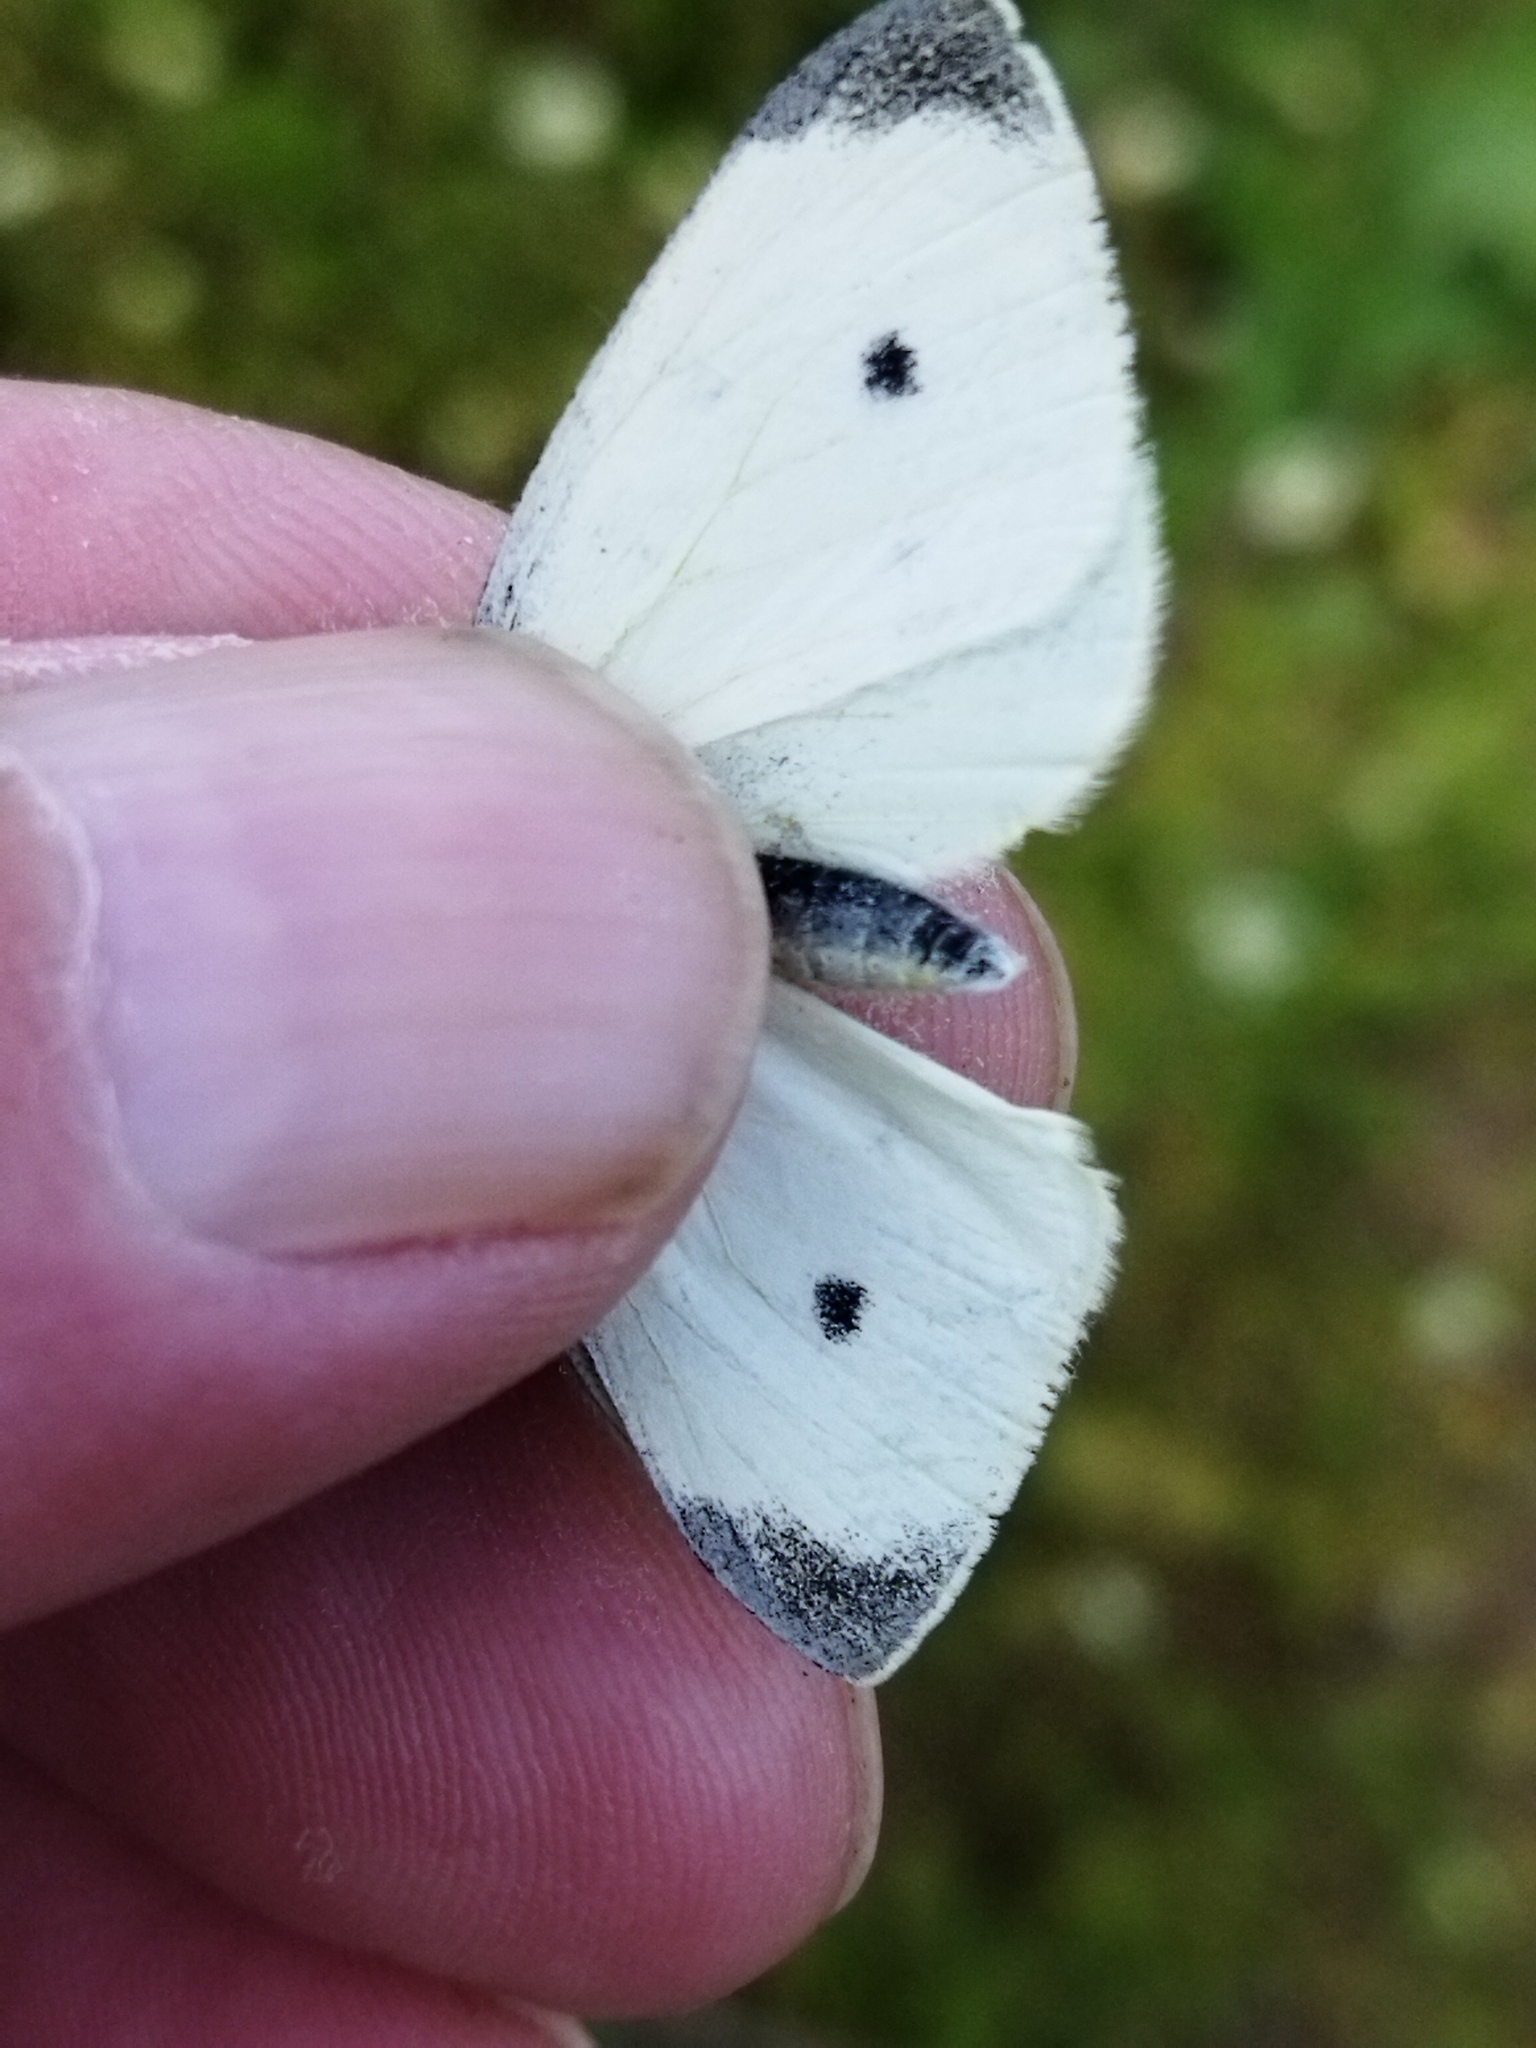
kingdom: Animalia
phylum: Arthropoda
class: Insecta
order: Lepidoptera
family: Pieridae
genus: Pieris
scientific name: Pieris rapae
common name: Small white
